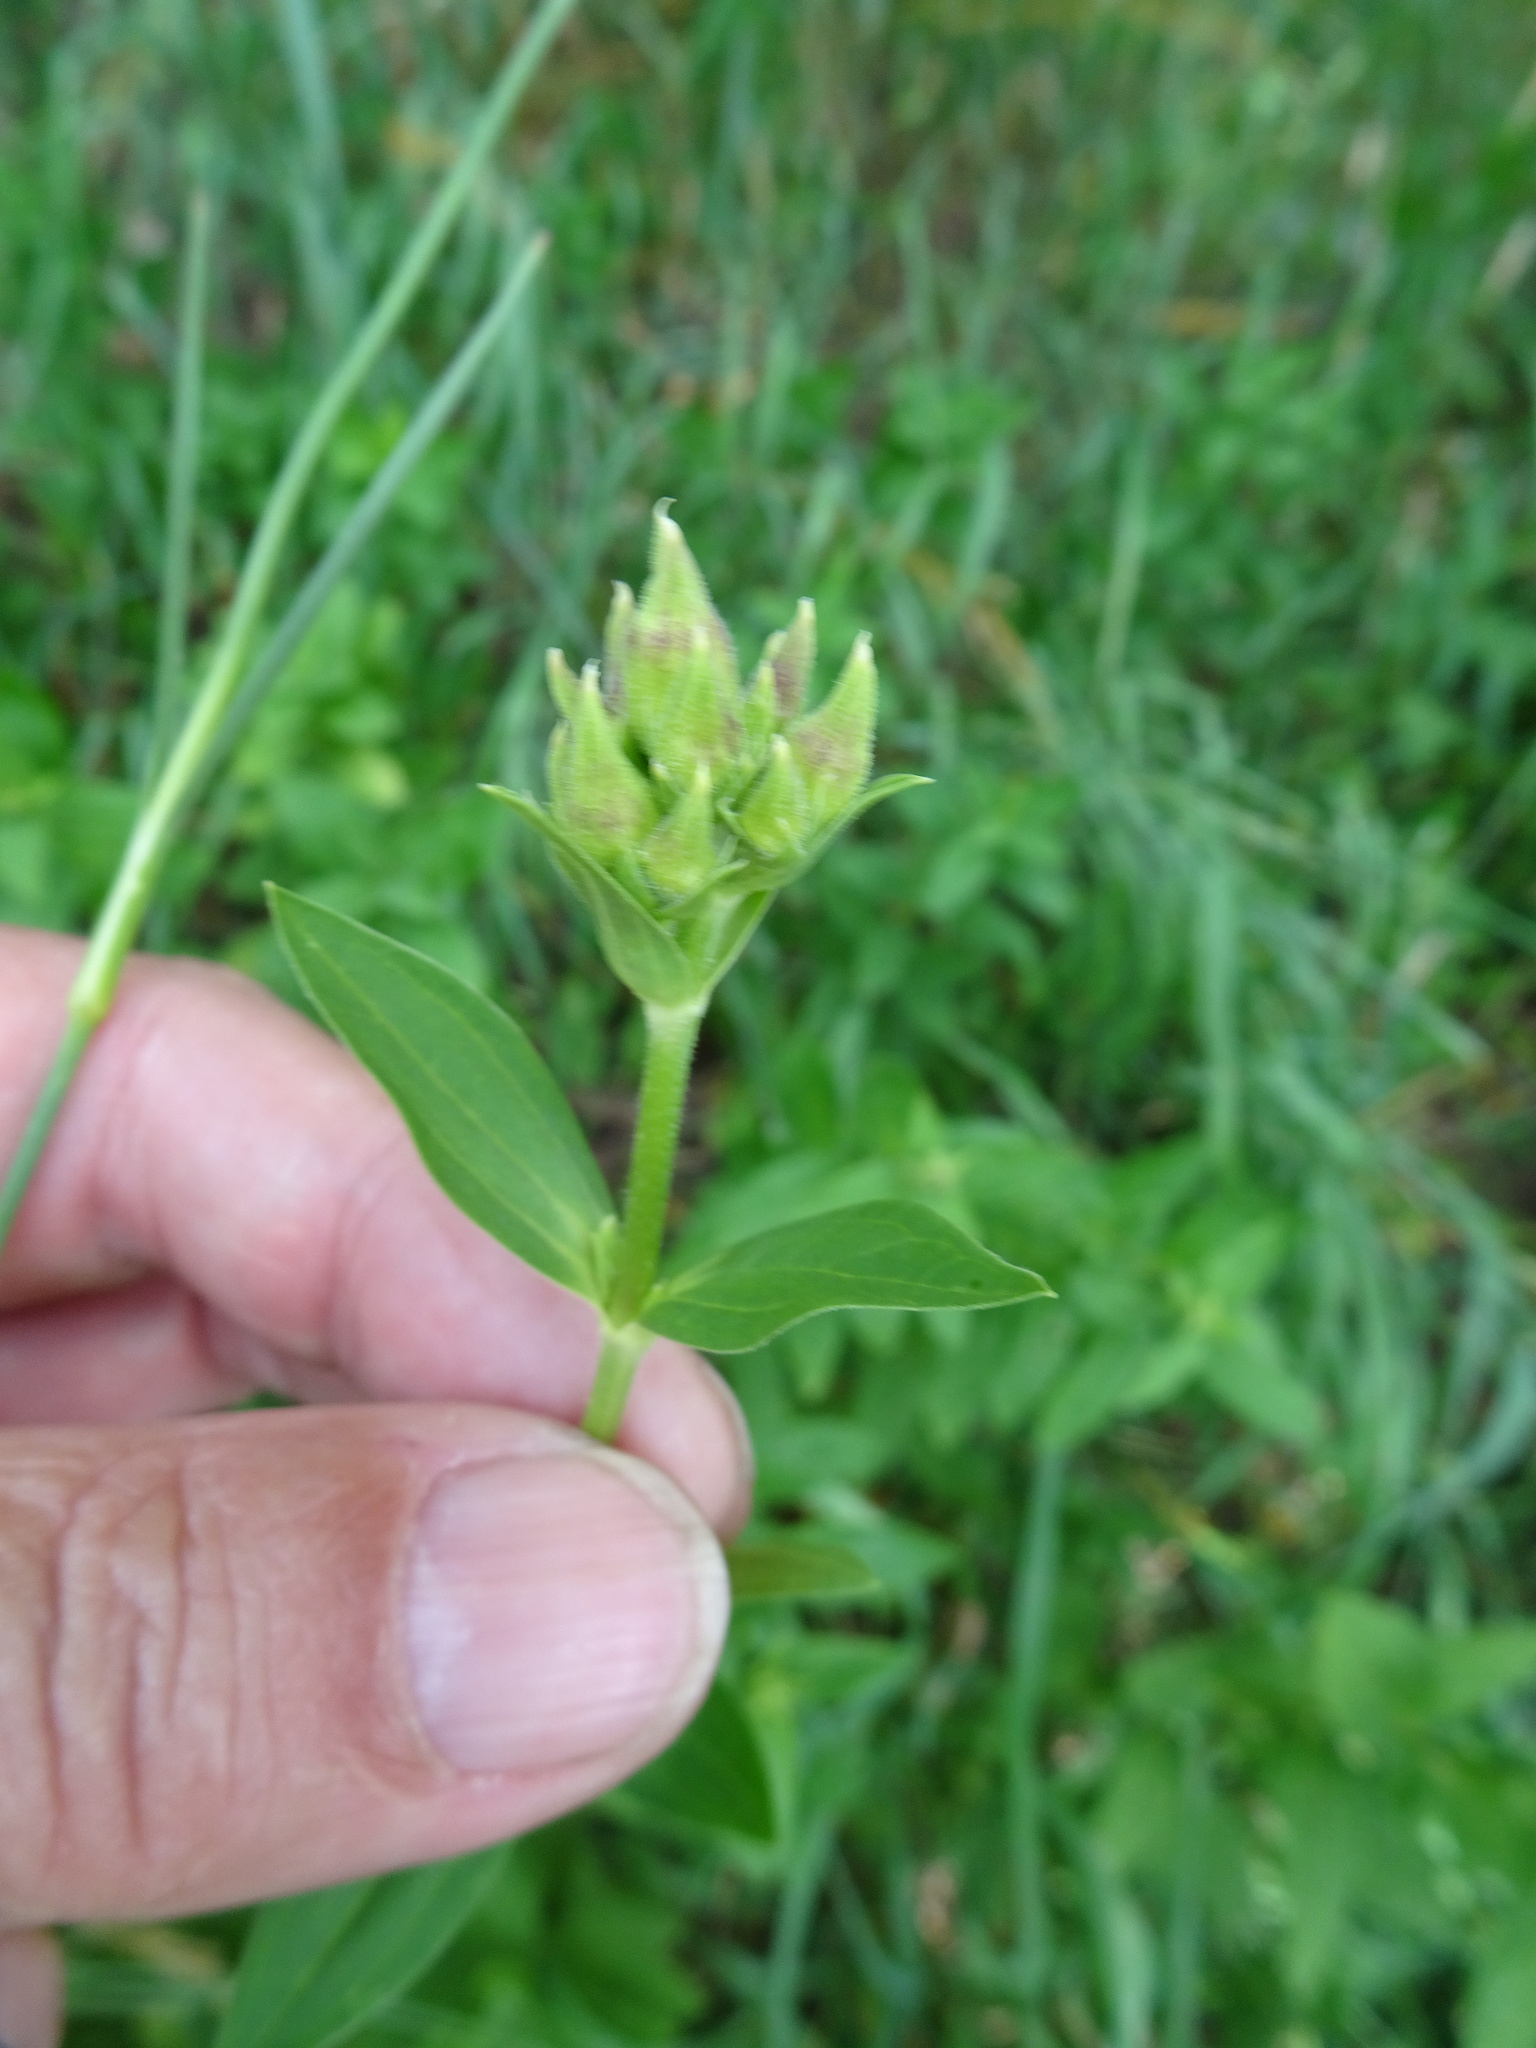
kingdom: Plantae
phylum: Tracheophyta
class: Magnoliopsida
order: Caryophyllales
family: Caryophyllaceae
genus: Saponaria
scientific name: Saponaria officinalis
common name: Soapwort
